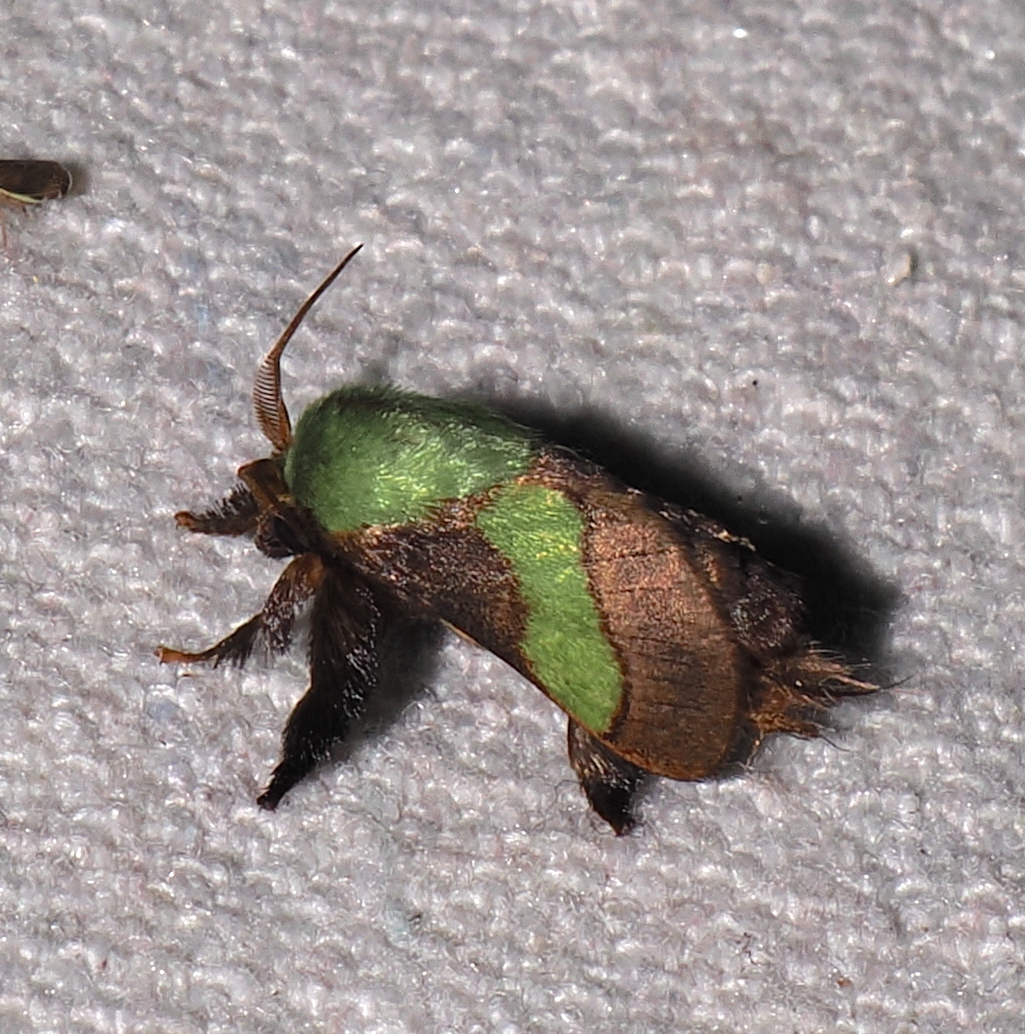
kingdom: Animalia
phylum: Arthropoda
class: Insecta
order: Lepidoptera
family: Limacodidae
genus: Parasa
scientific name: Parasa minima
